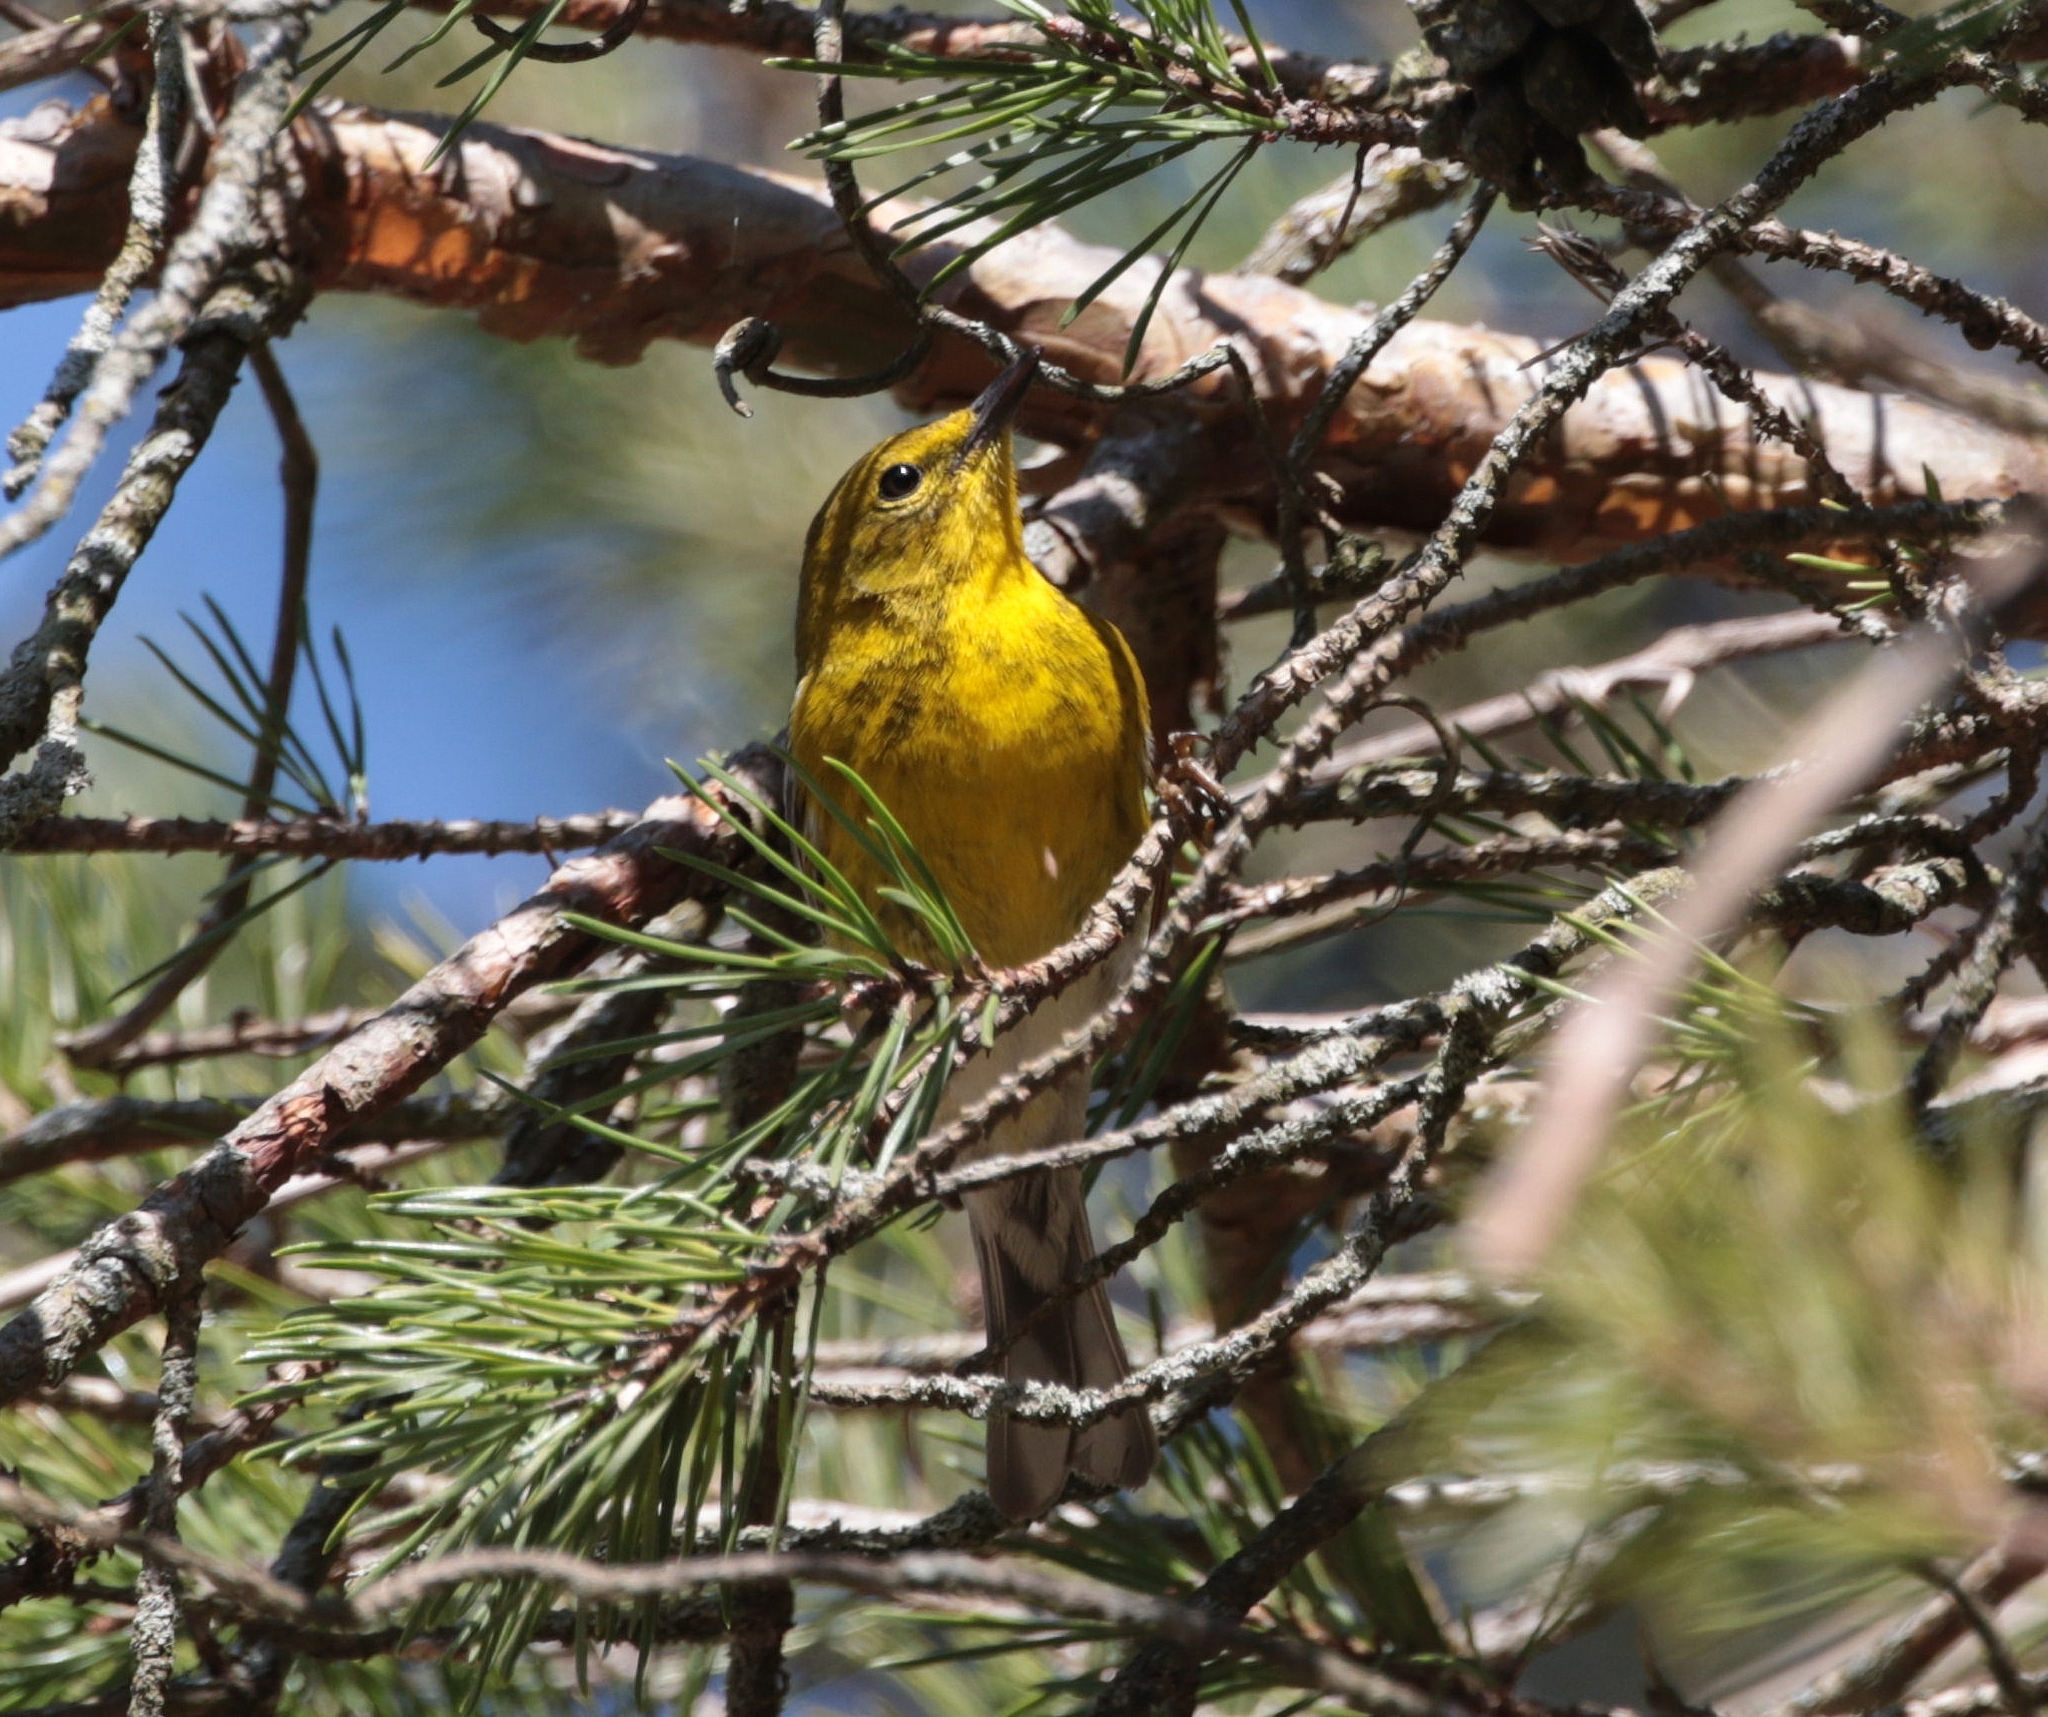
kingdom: Animalia
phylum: Chordata
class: Aves
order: Passeriformes
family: Parulidae
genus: Setophaga
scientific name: Setophaga pinus
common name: Pine warbler
